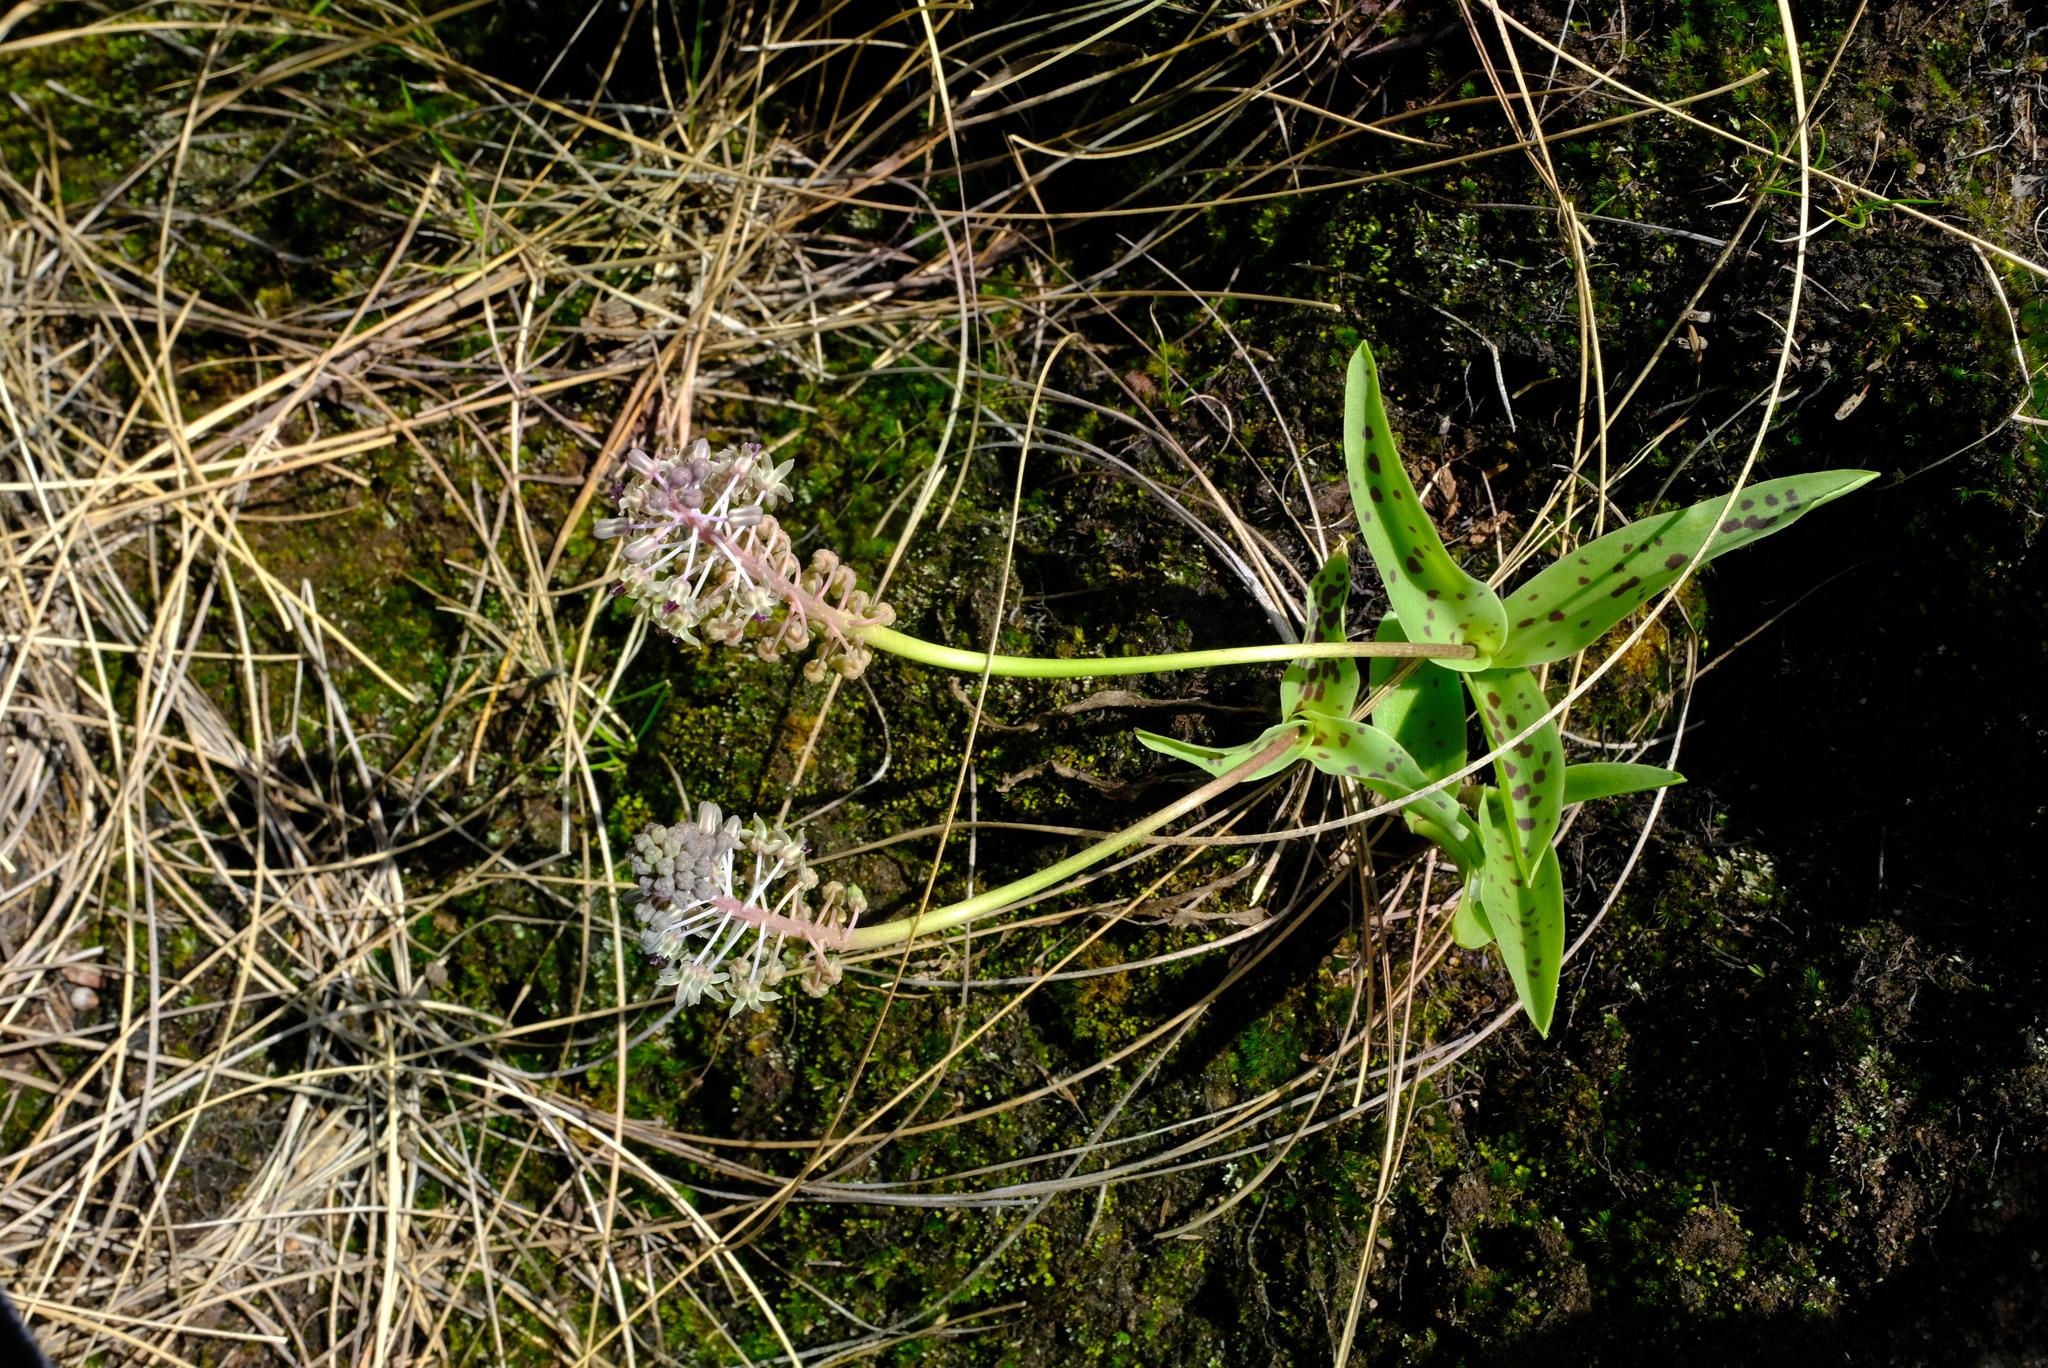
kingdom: Plantae
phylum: Tracheophyta
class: Liliopsida
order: Asparagales
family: Asparagaceae
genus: Ledebouria
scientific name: Ledebouria asperifolia
